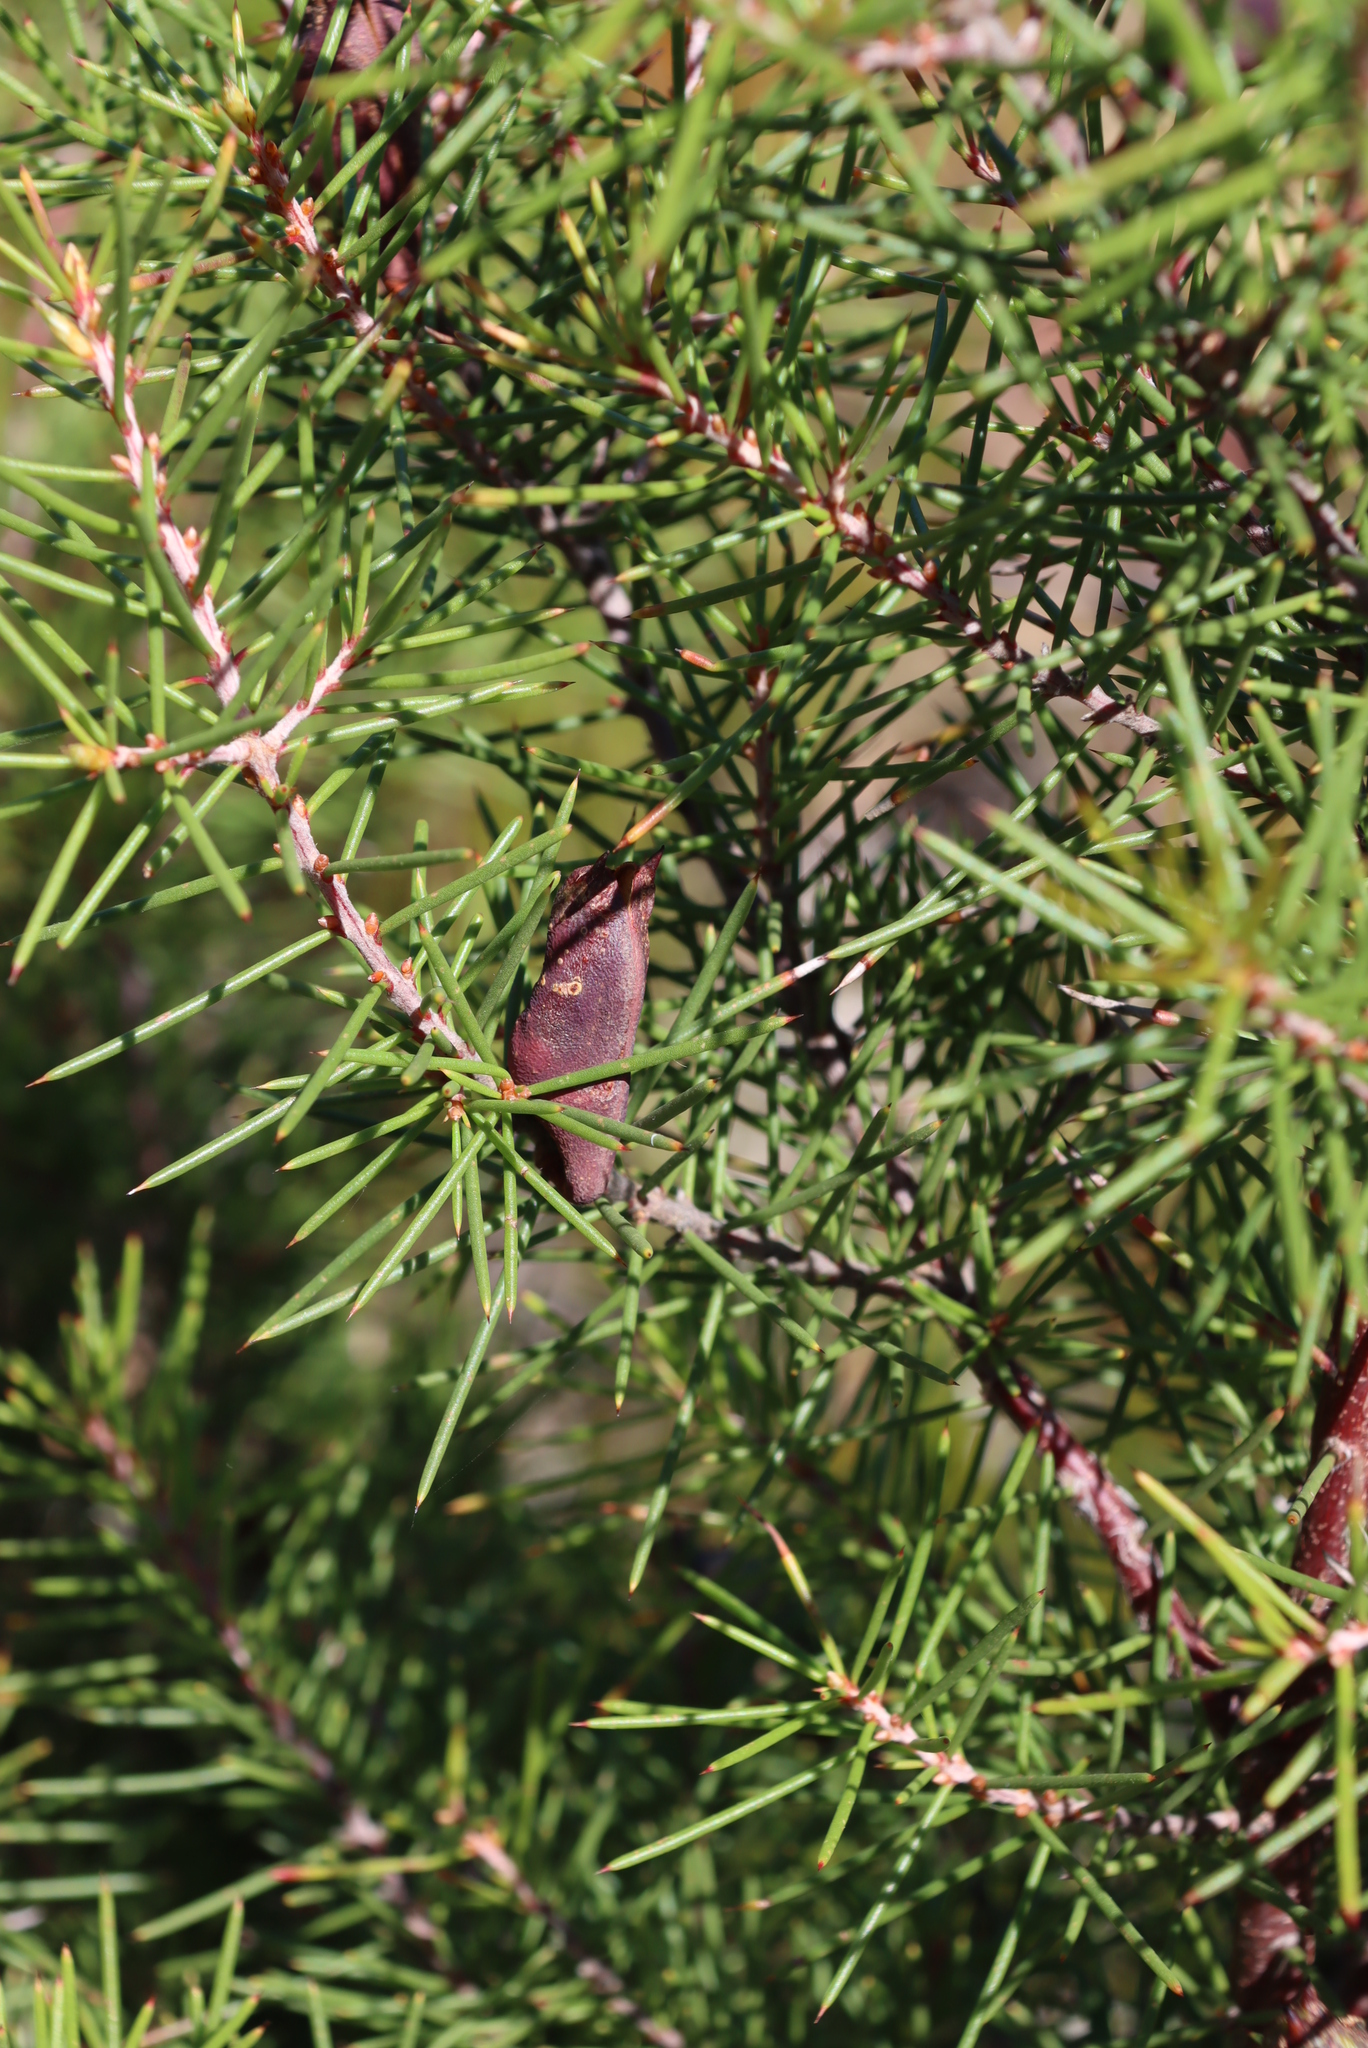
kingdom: Animalia
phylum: Arthropoda
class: Insecta
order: Coleoptera
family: Curculionidae
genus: Erytenna
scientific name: Erytenna consputa
